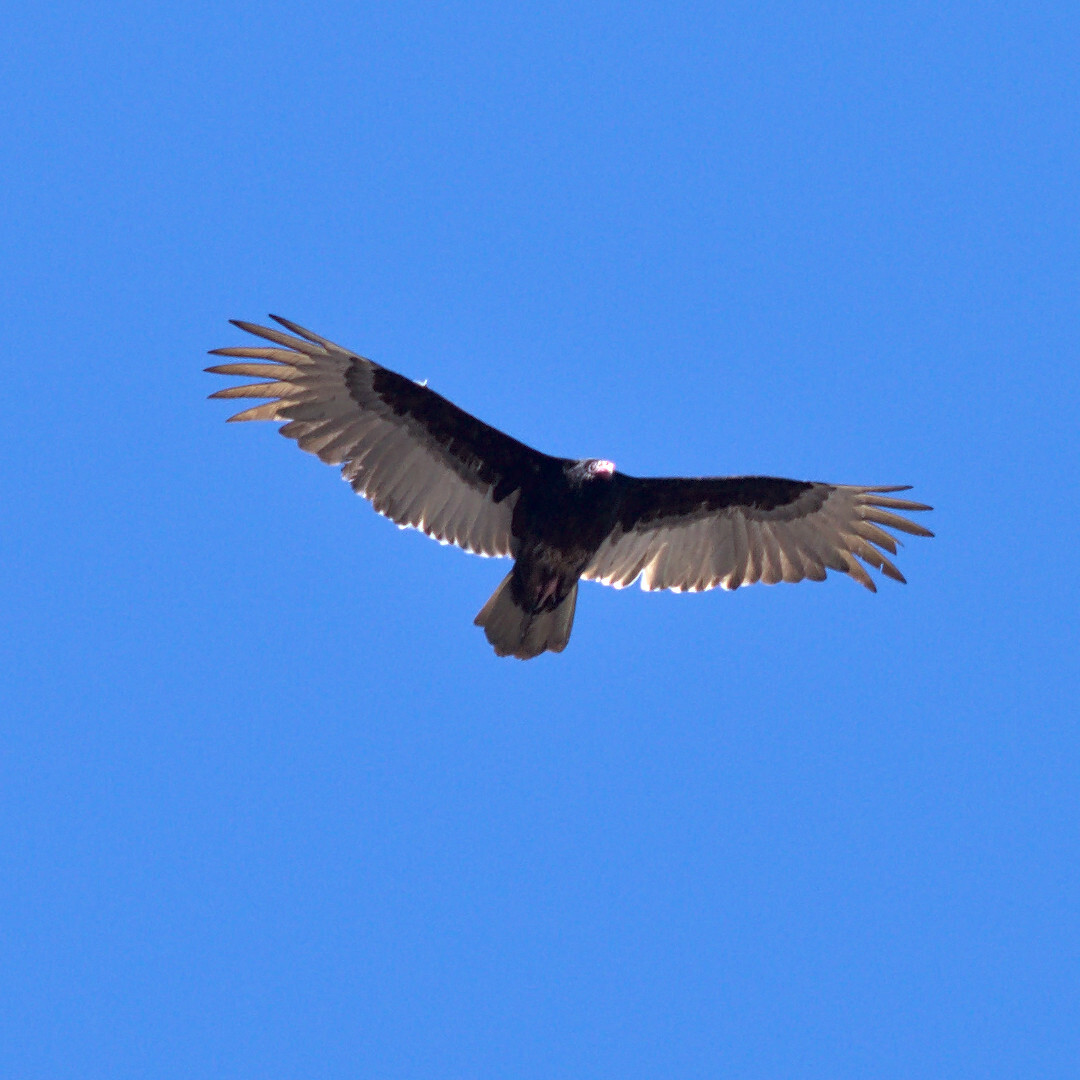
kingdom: Animalia
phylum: Chordata
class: Aves
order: Accipitriformes
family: Cathartidae
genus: Cathartes
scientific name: Cathartes aura
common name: Turkey vulture
